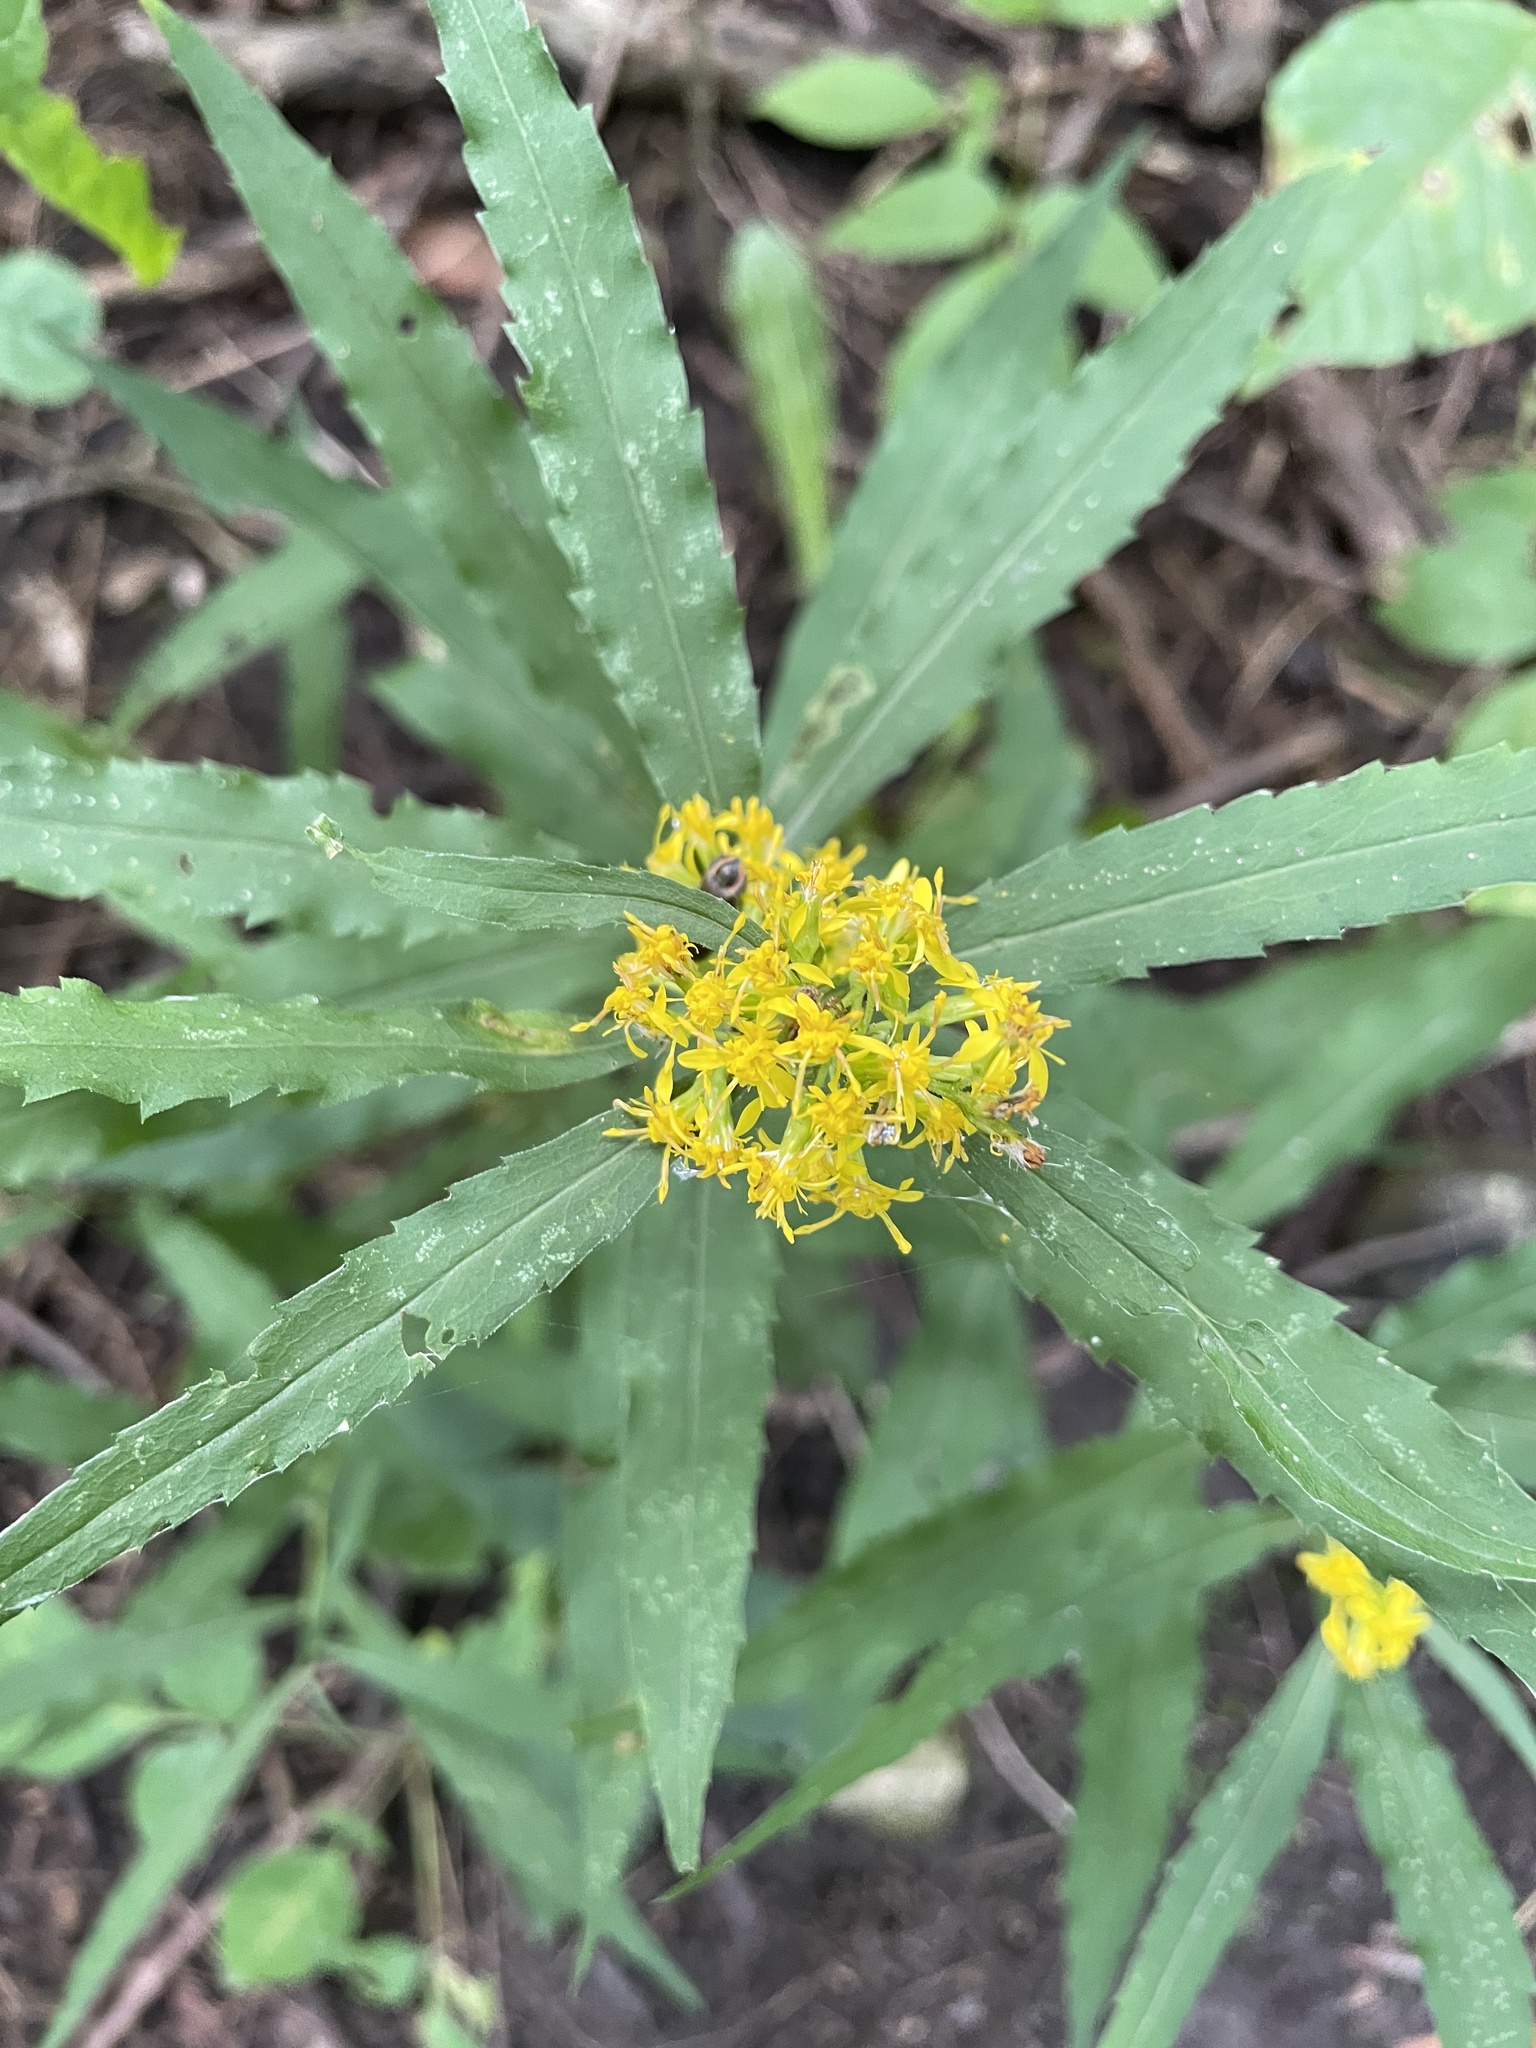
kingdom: Plantae
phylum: Tracheophyta
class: Magnoliopsida
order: Asterales
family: Asteraceae
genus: Solidago
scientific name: Solidago caesia
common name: Woodland goldenrod
